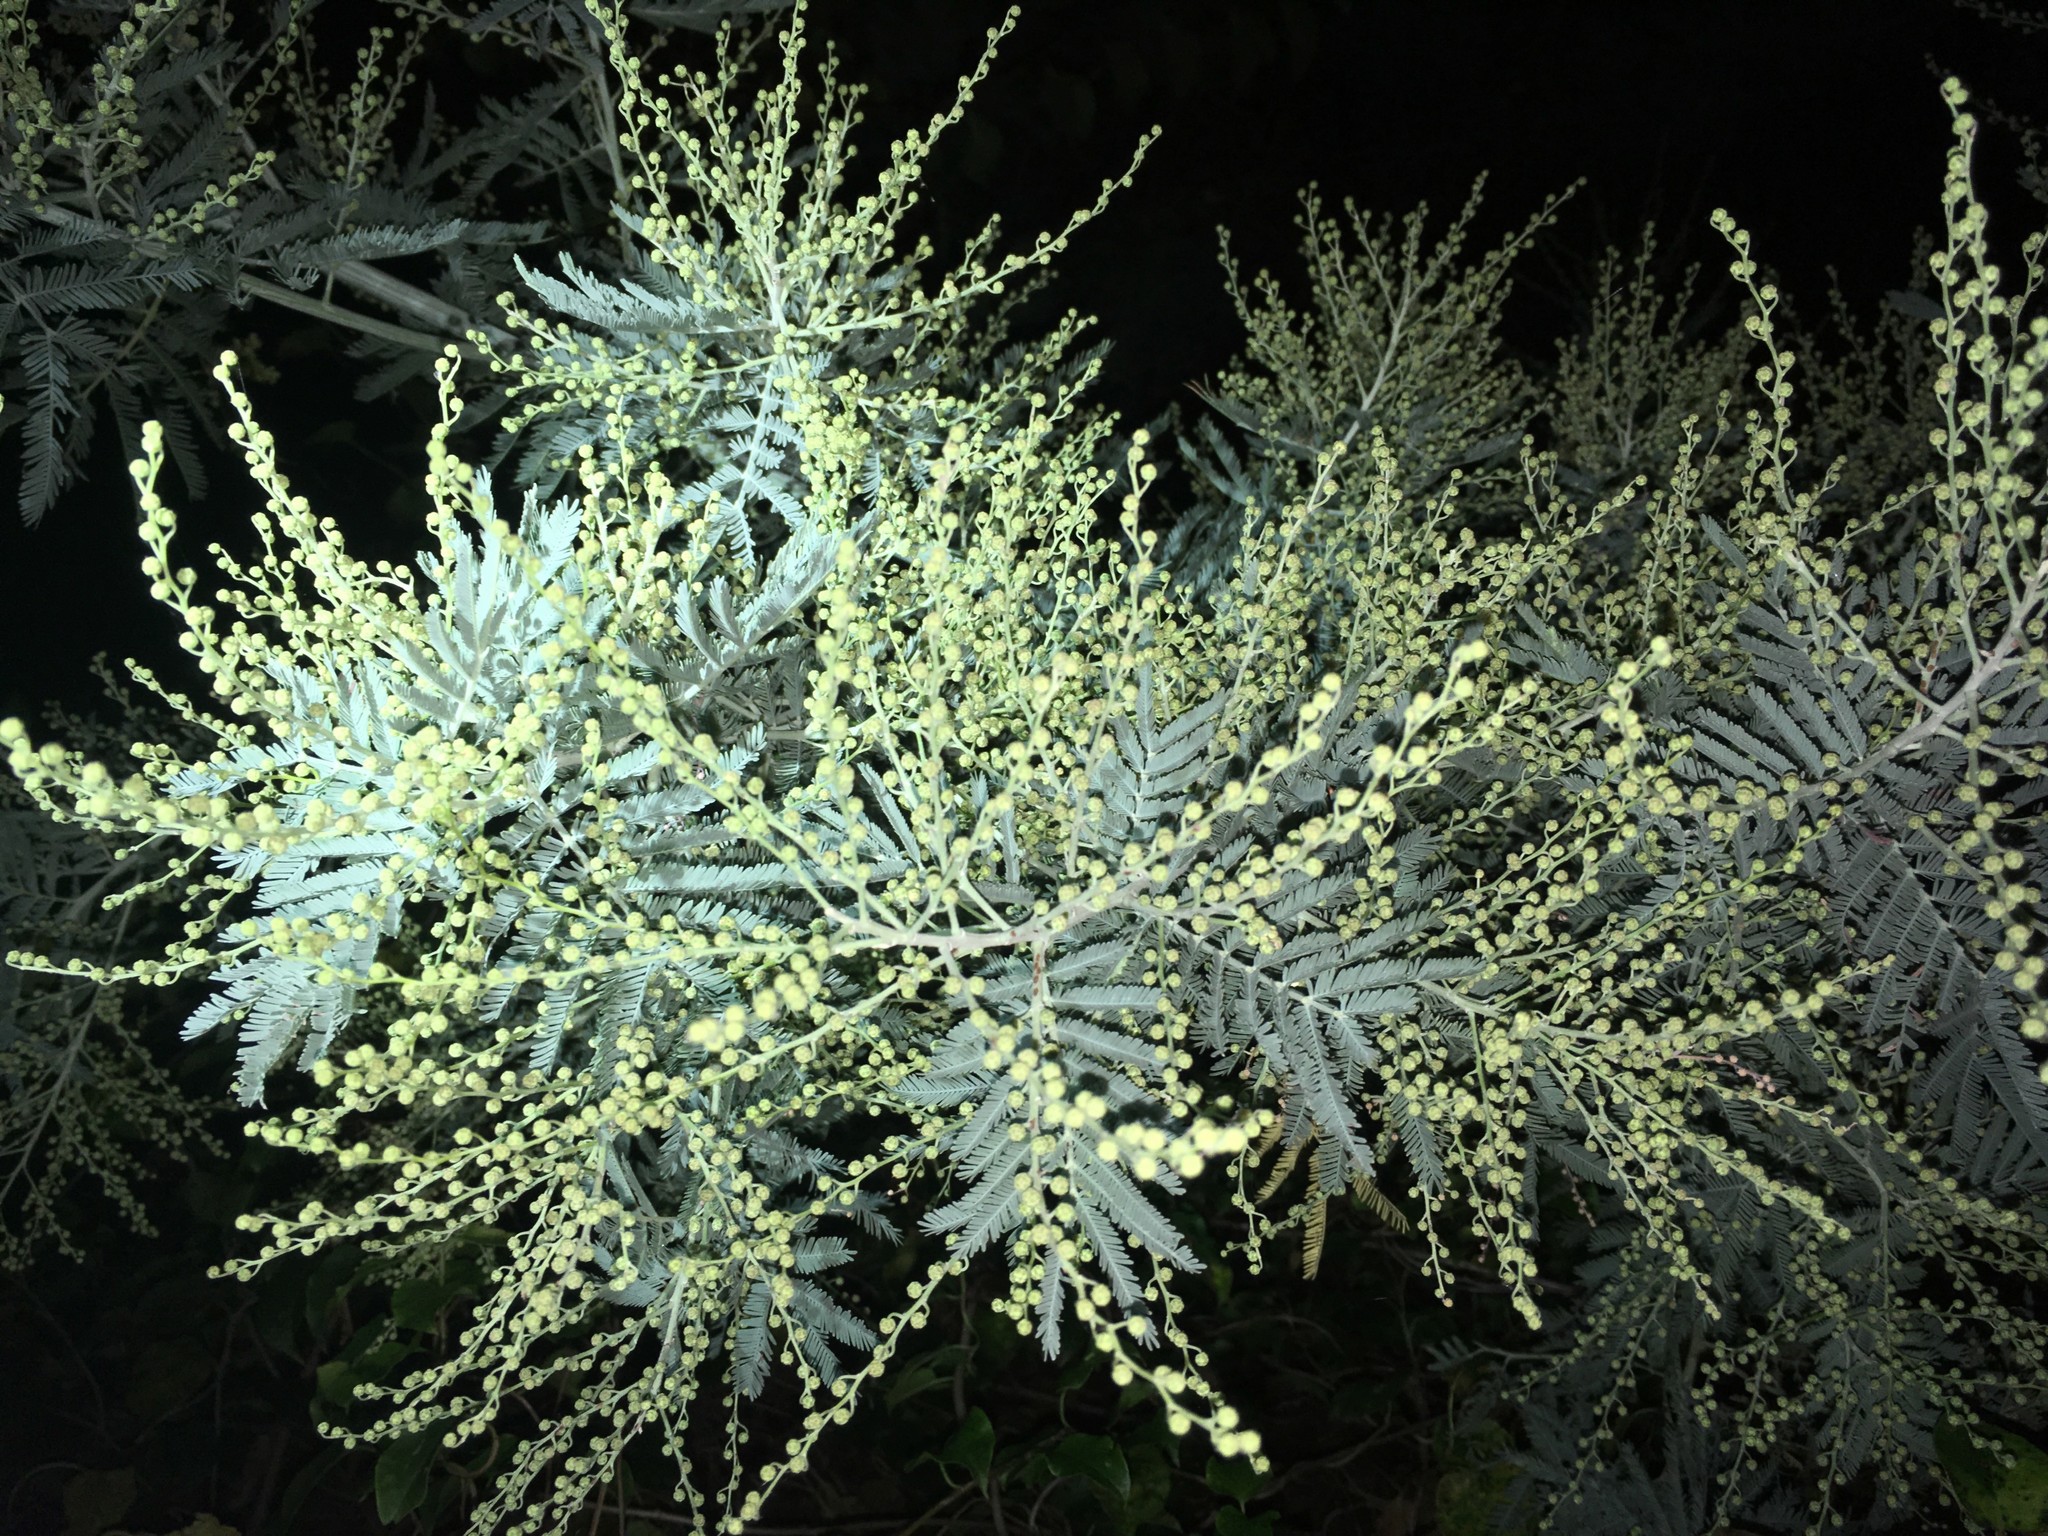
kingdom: Plantae
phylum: Tracheophyta
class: Magnoliopsida
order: Fabales
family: Fabaceae
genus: Acacia
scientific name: Acacia dealbata
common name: Silver wattle
